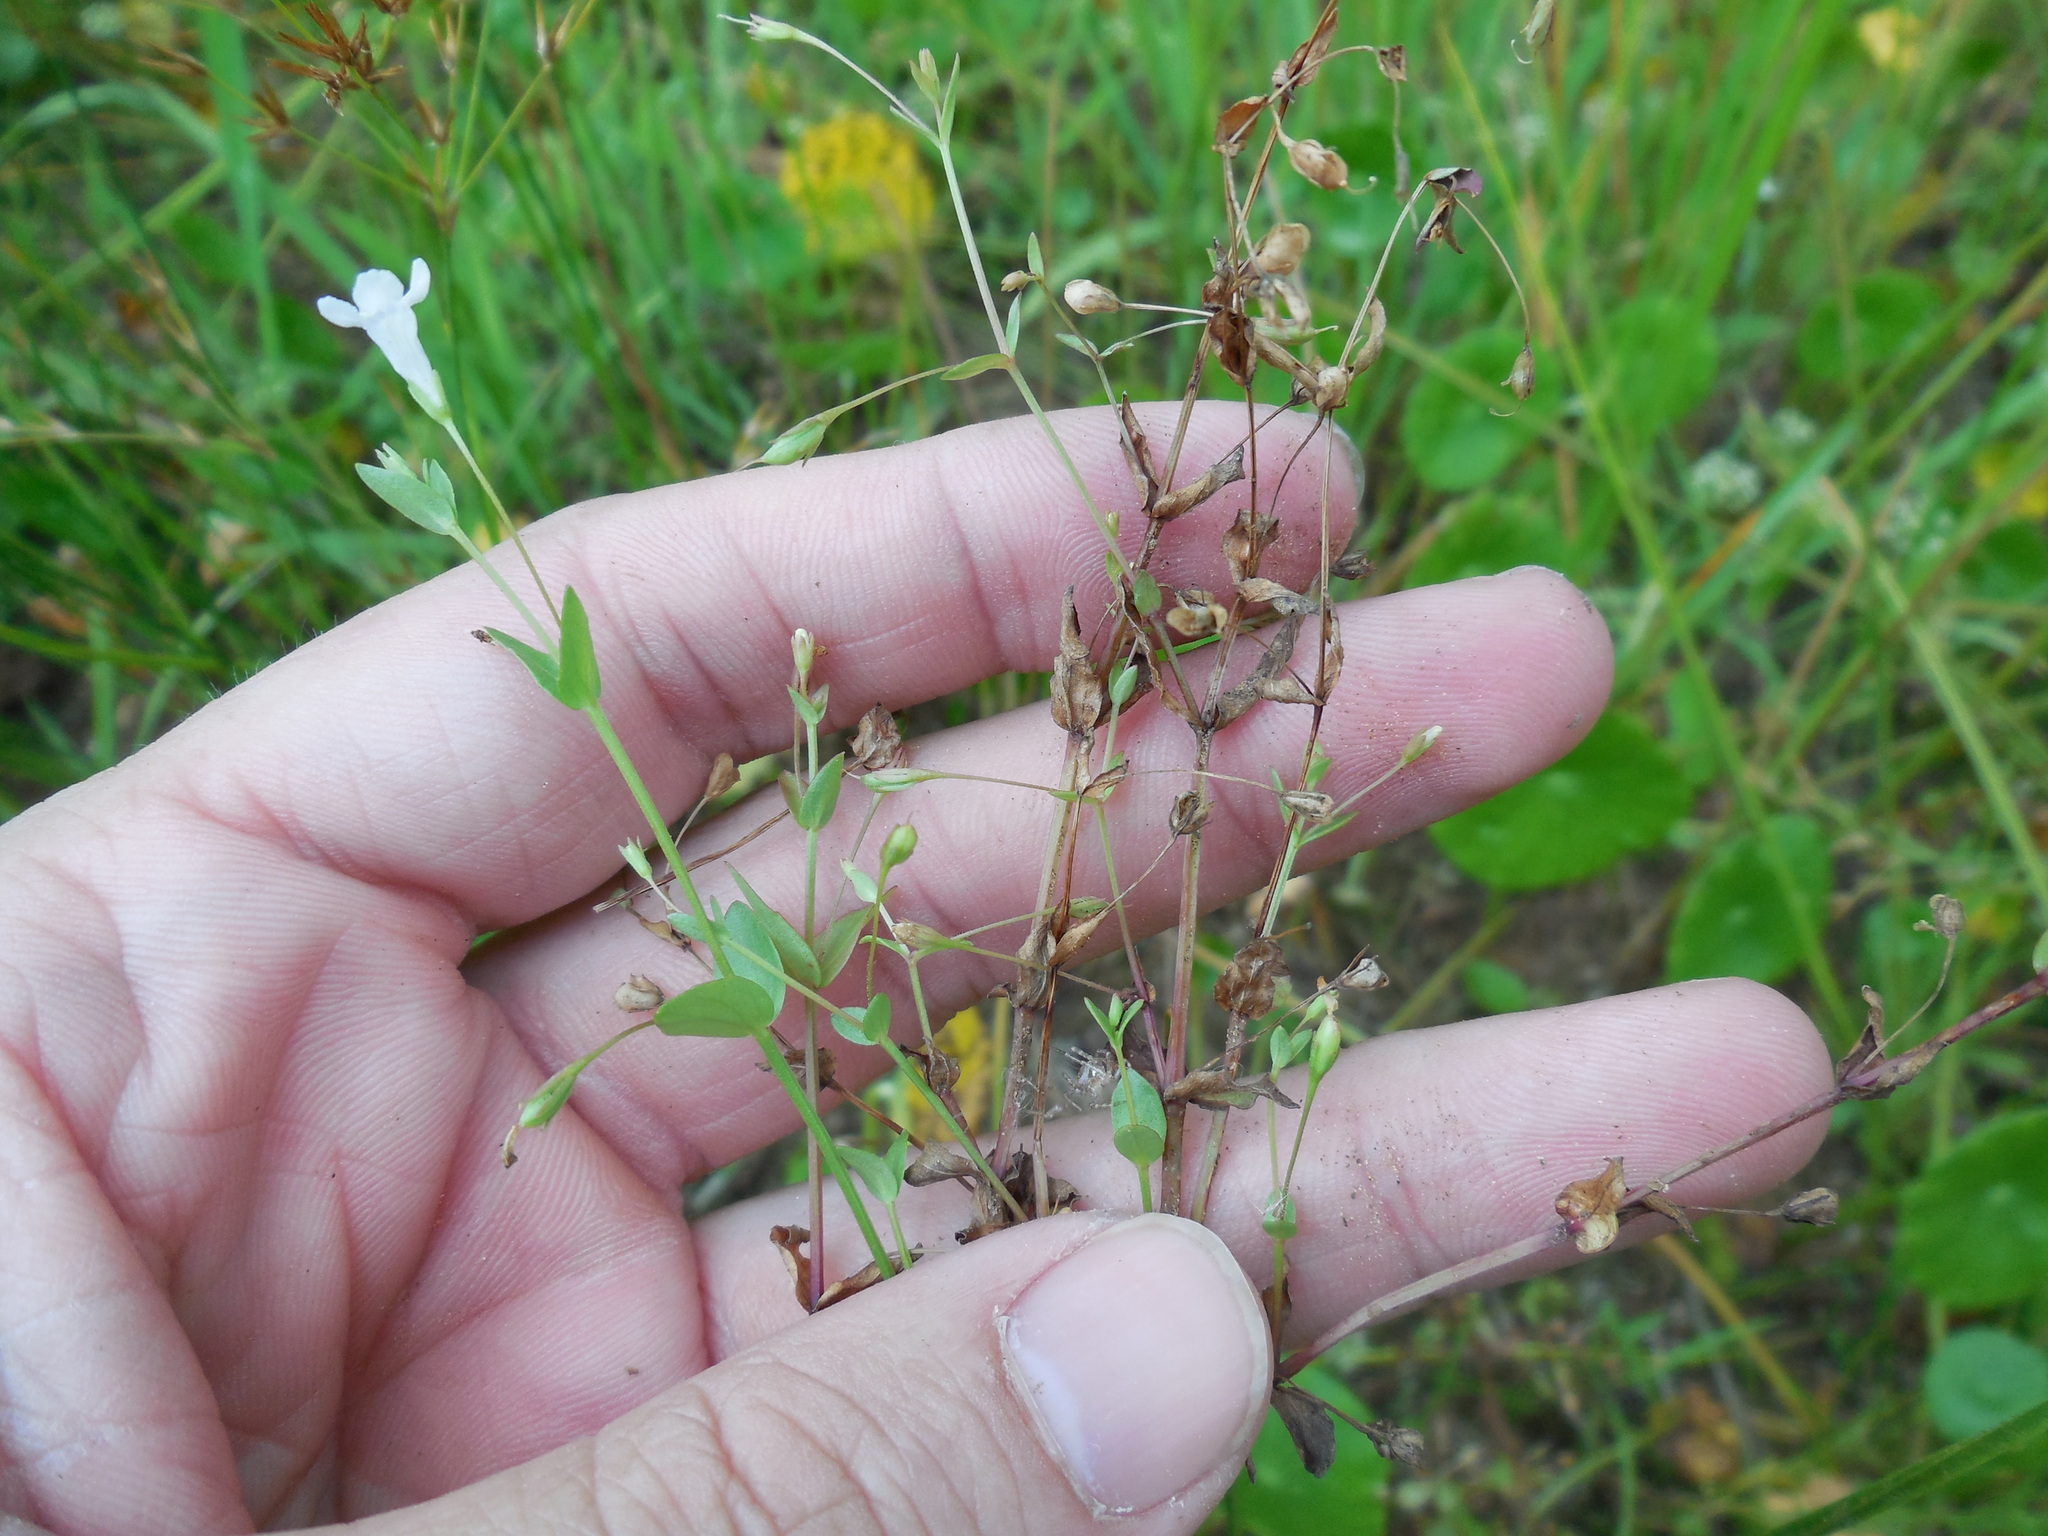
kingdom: Plantae
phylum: Tracheophyta
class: Magnoliopsida
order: Lamiales
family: Linderniaceae
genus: Lindernia
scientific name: Lindernia dubia
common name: Annual false pimpernel
